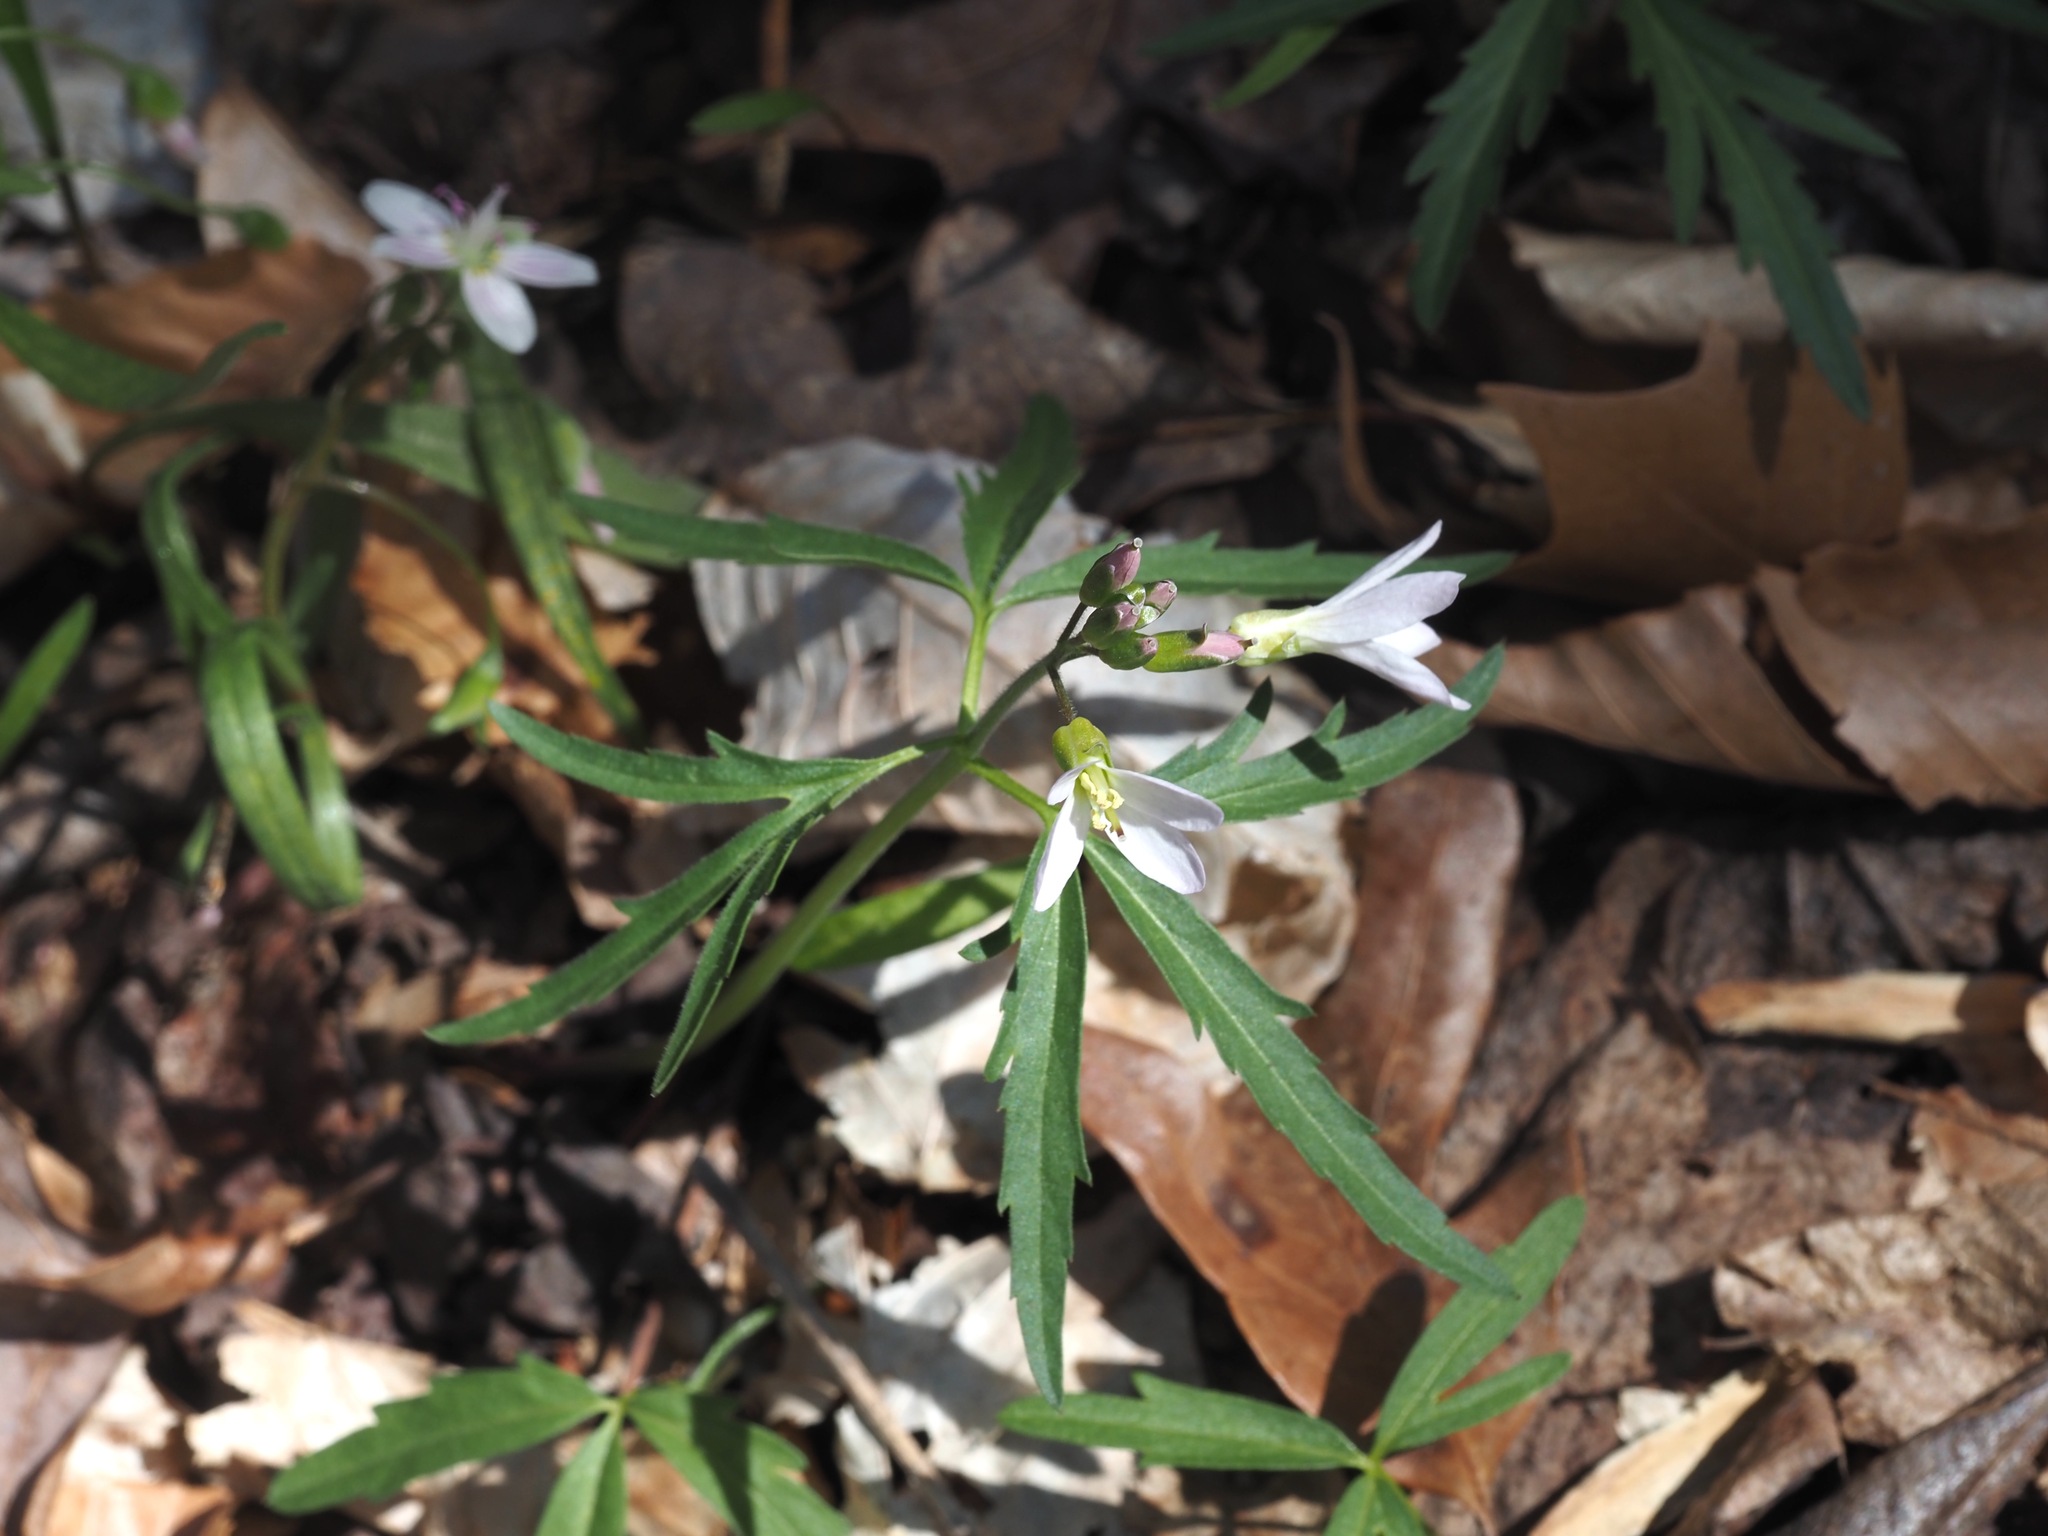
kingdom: Plantae
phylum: Tracheophyta
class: Magnoliopsida
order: Brassicales
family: Brassicaceae
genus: Cardamine
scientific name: Cardamine concatenata
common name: Cut-leaf toothcup
